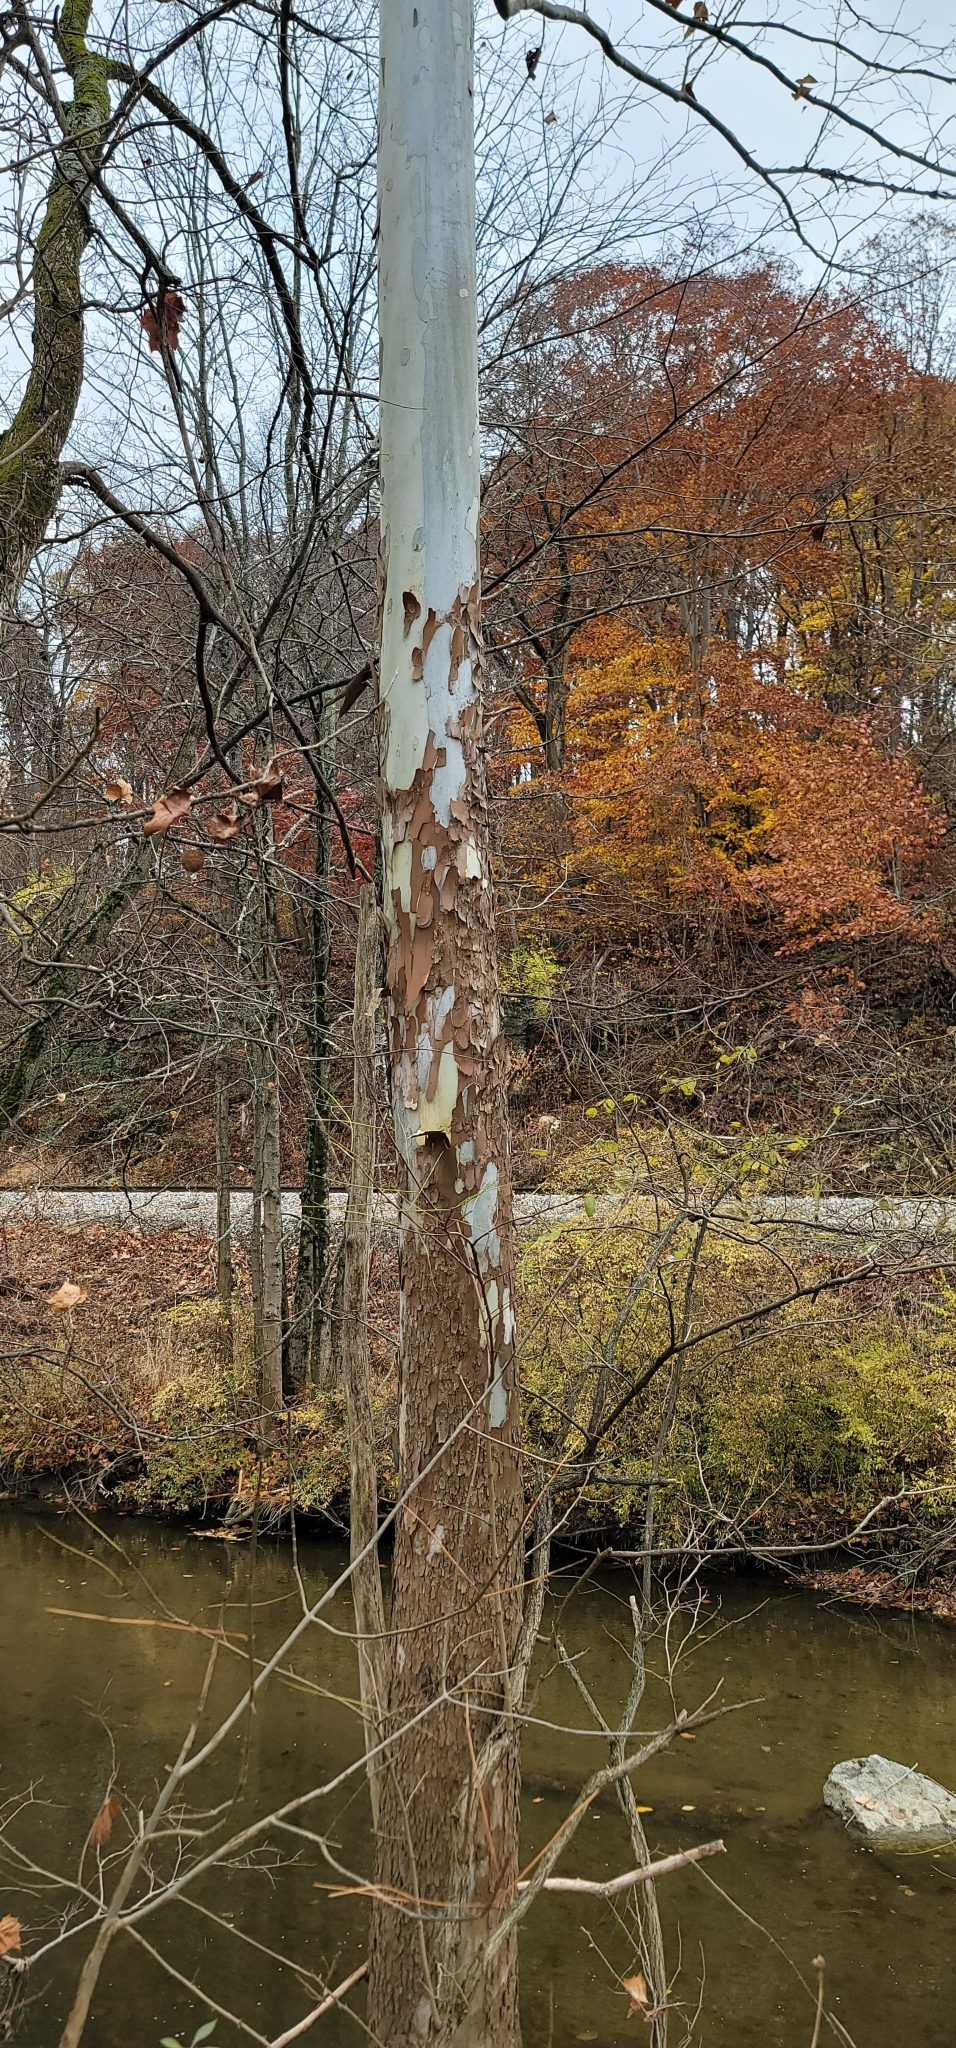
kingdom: Plantae
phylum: Tracheophyta
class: Magnoliopsida
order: Proteales
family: Platanaceae
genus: Platanus
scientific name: Platanus occidentalis
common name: American sycamore
